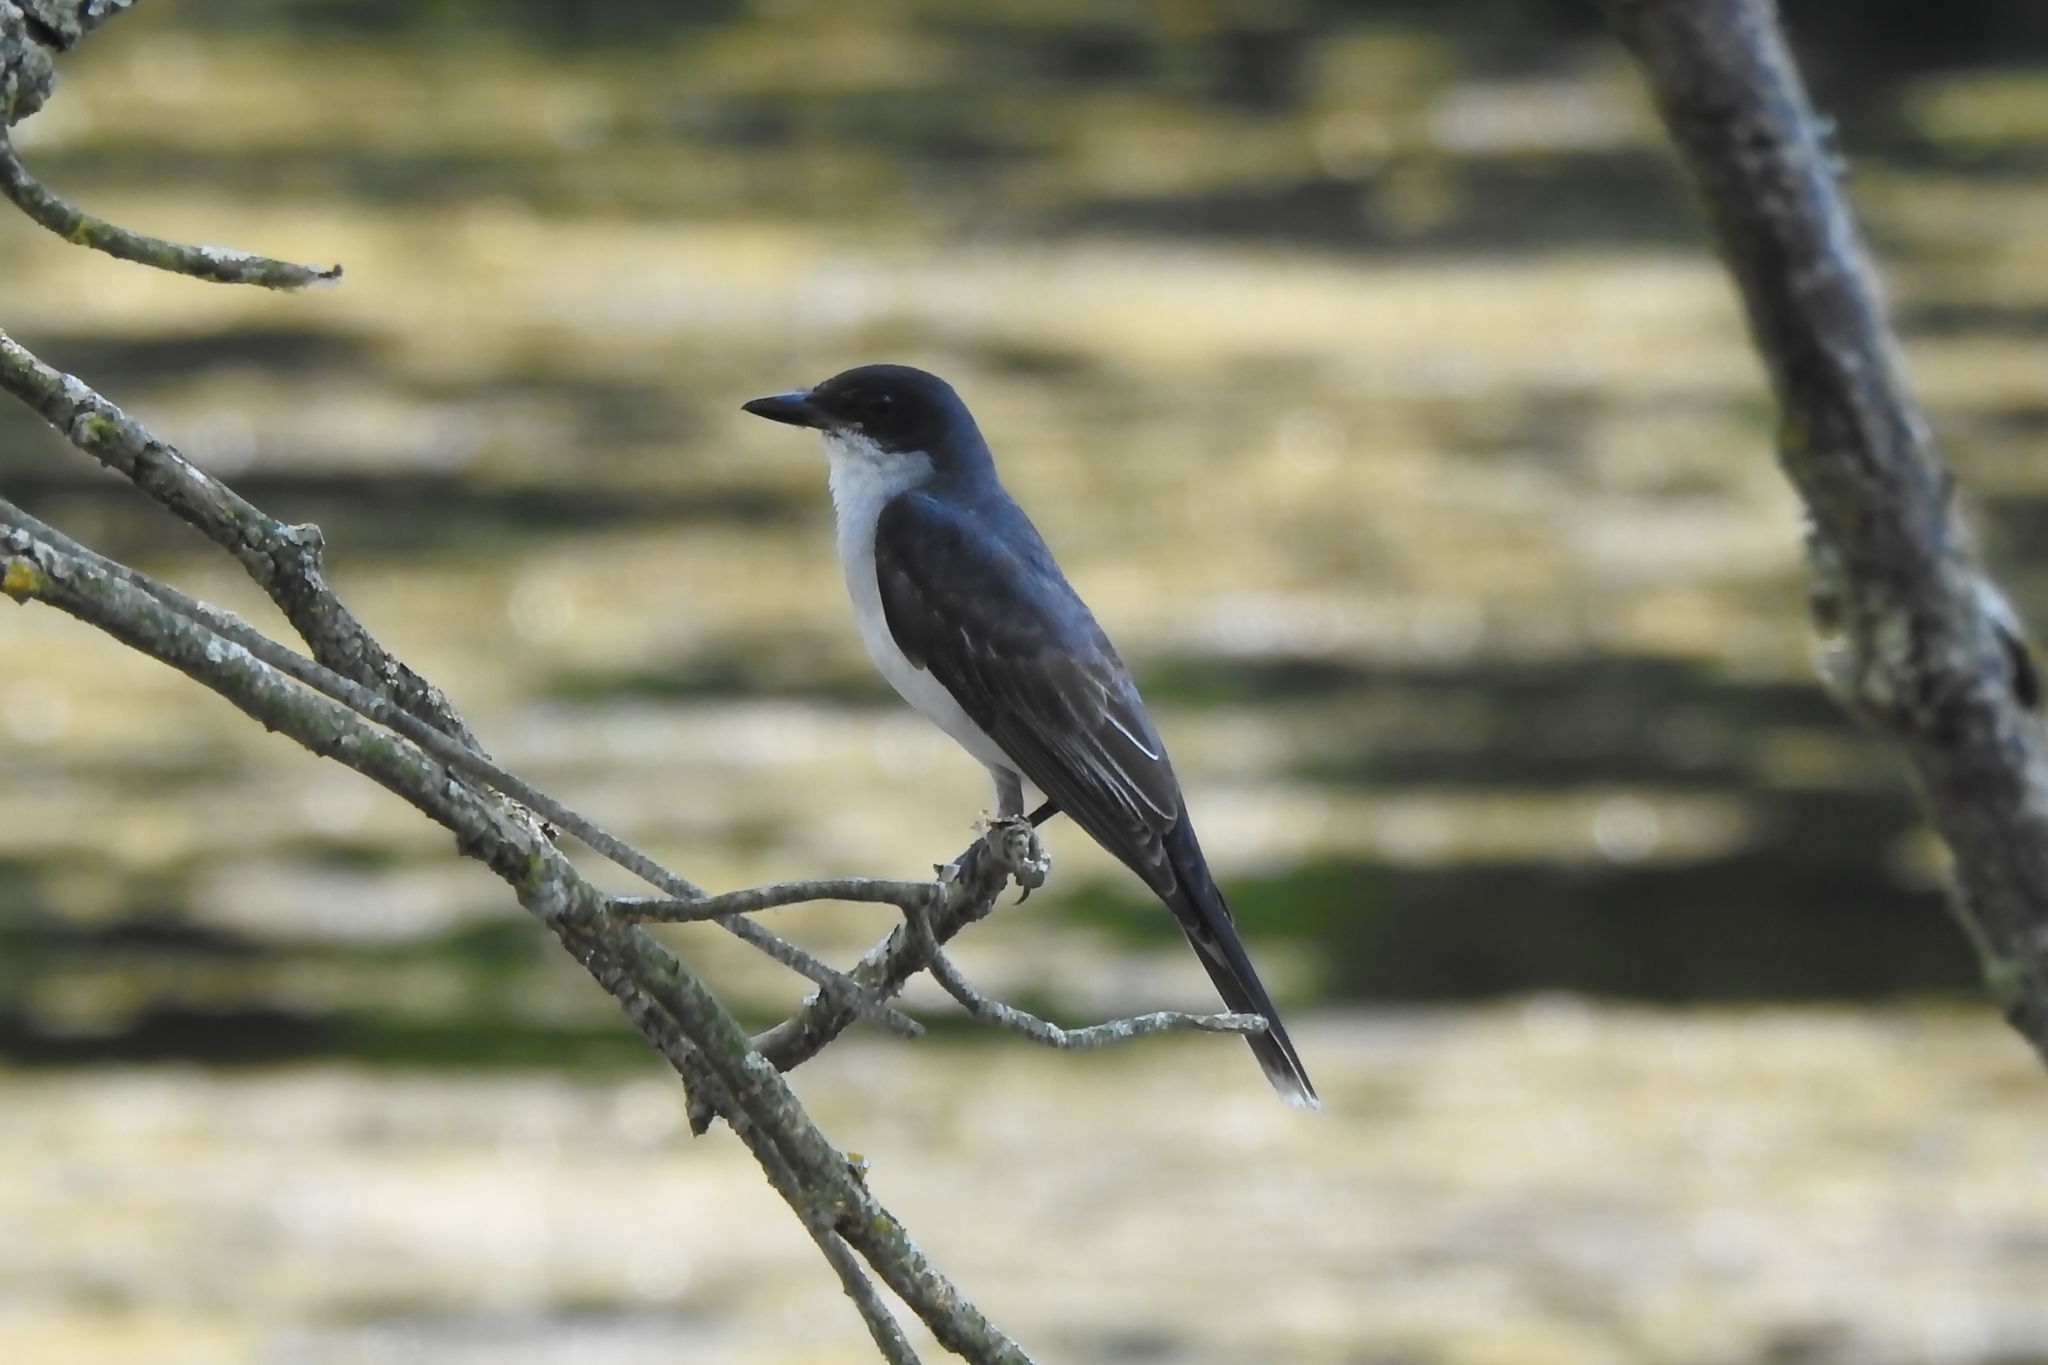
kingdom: Animalia
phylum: Chordata
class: Aves
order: Passeriformes
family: Tyrannidae
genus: Tyrannus
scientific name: Tyrannus tyrannus
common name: Eastern kingbird
